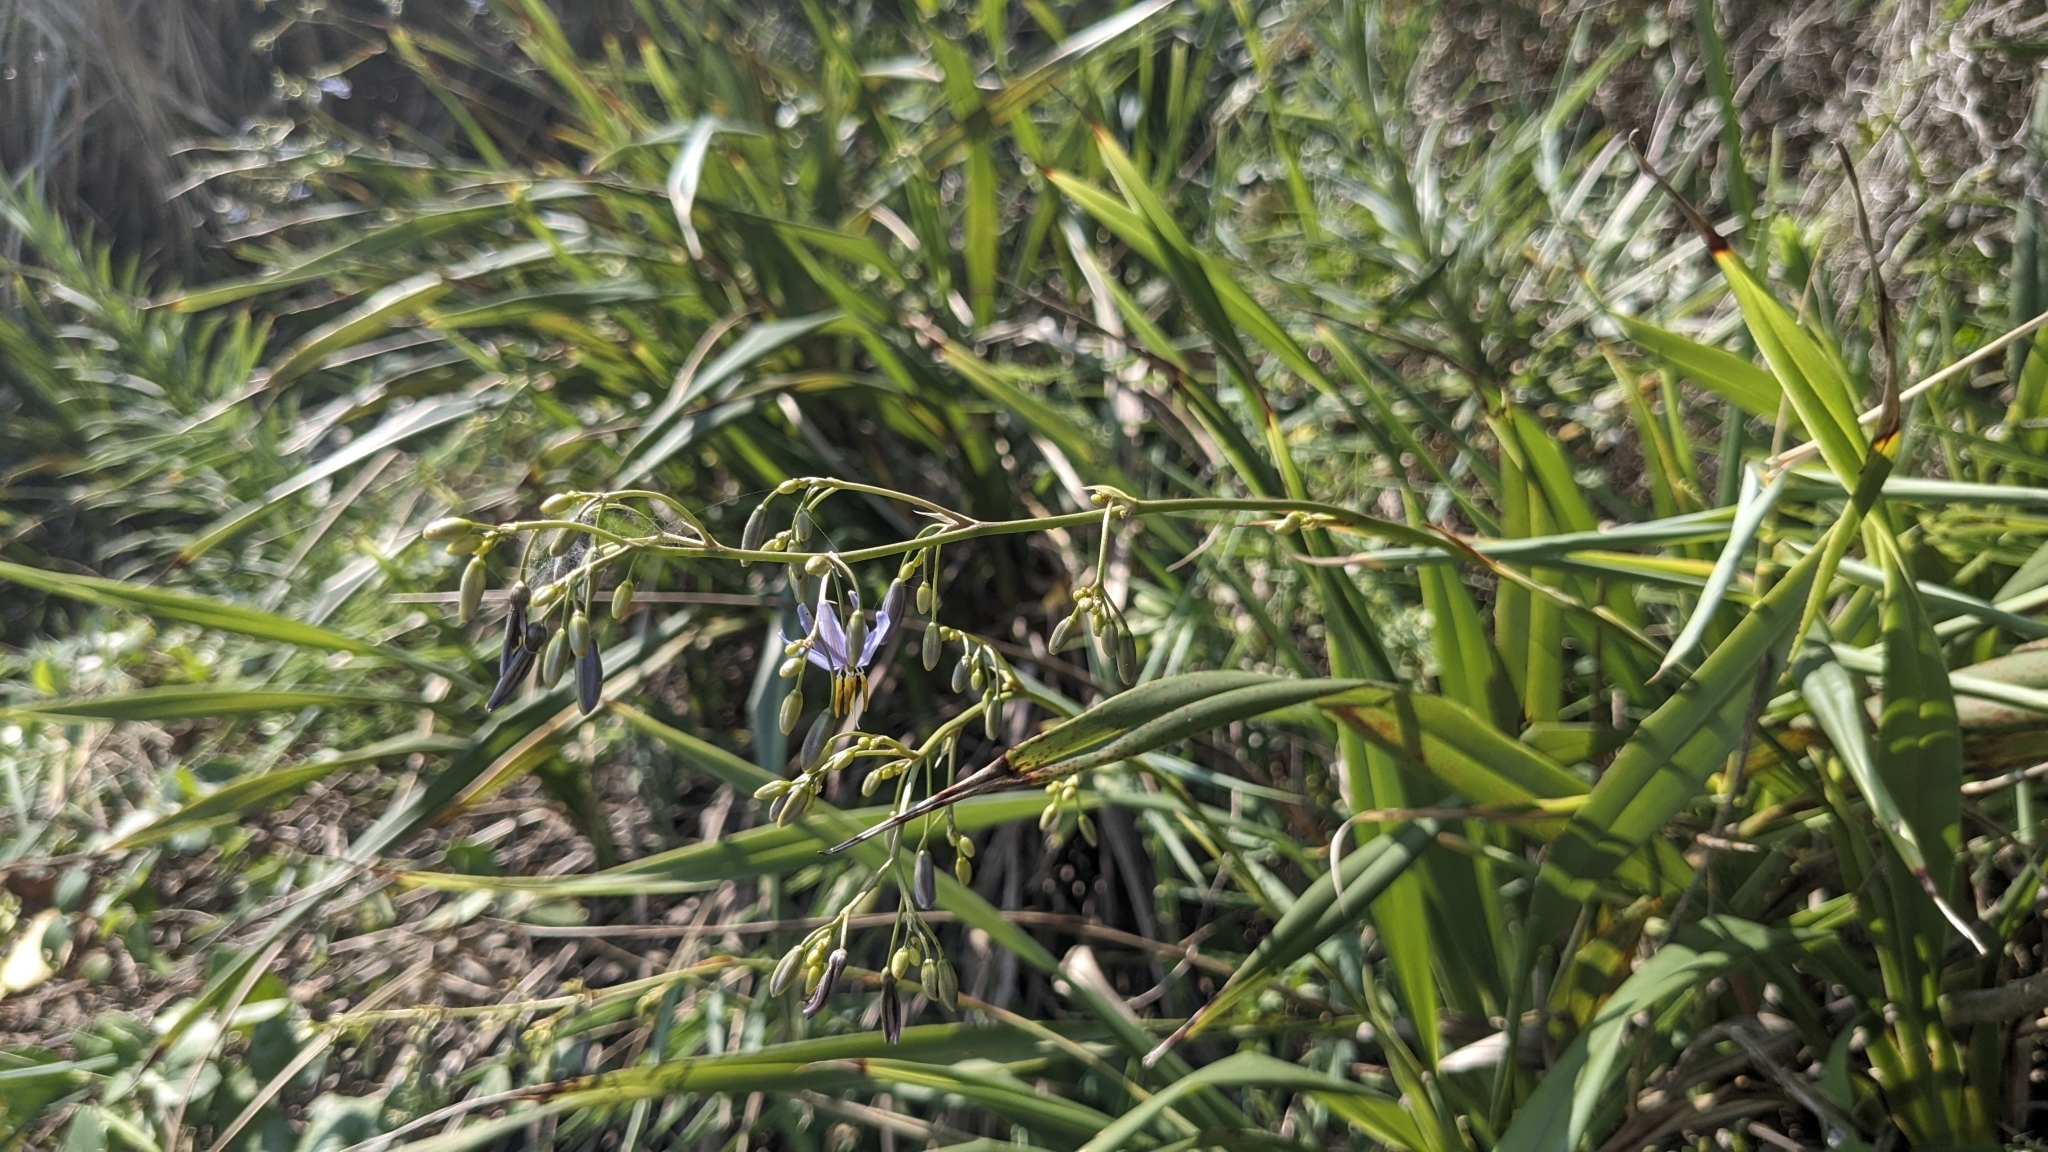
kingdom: Plantae
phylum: Tracheophyta
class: Liliopsida
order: Asparagales
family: Asphodelaceae
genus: Dianella
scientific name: Dianella ensifolia
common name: New zealand lilyplant
